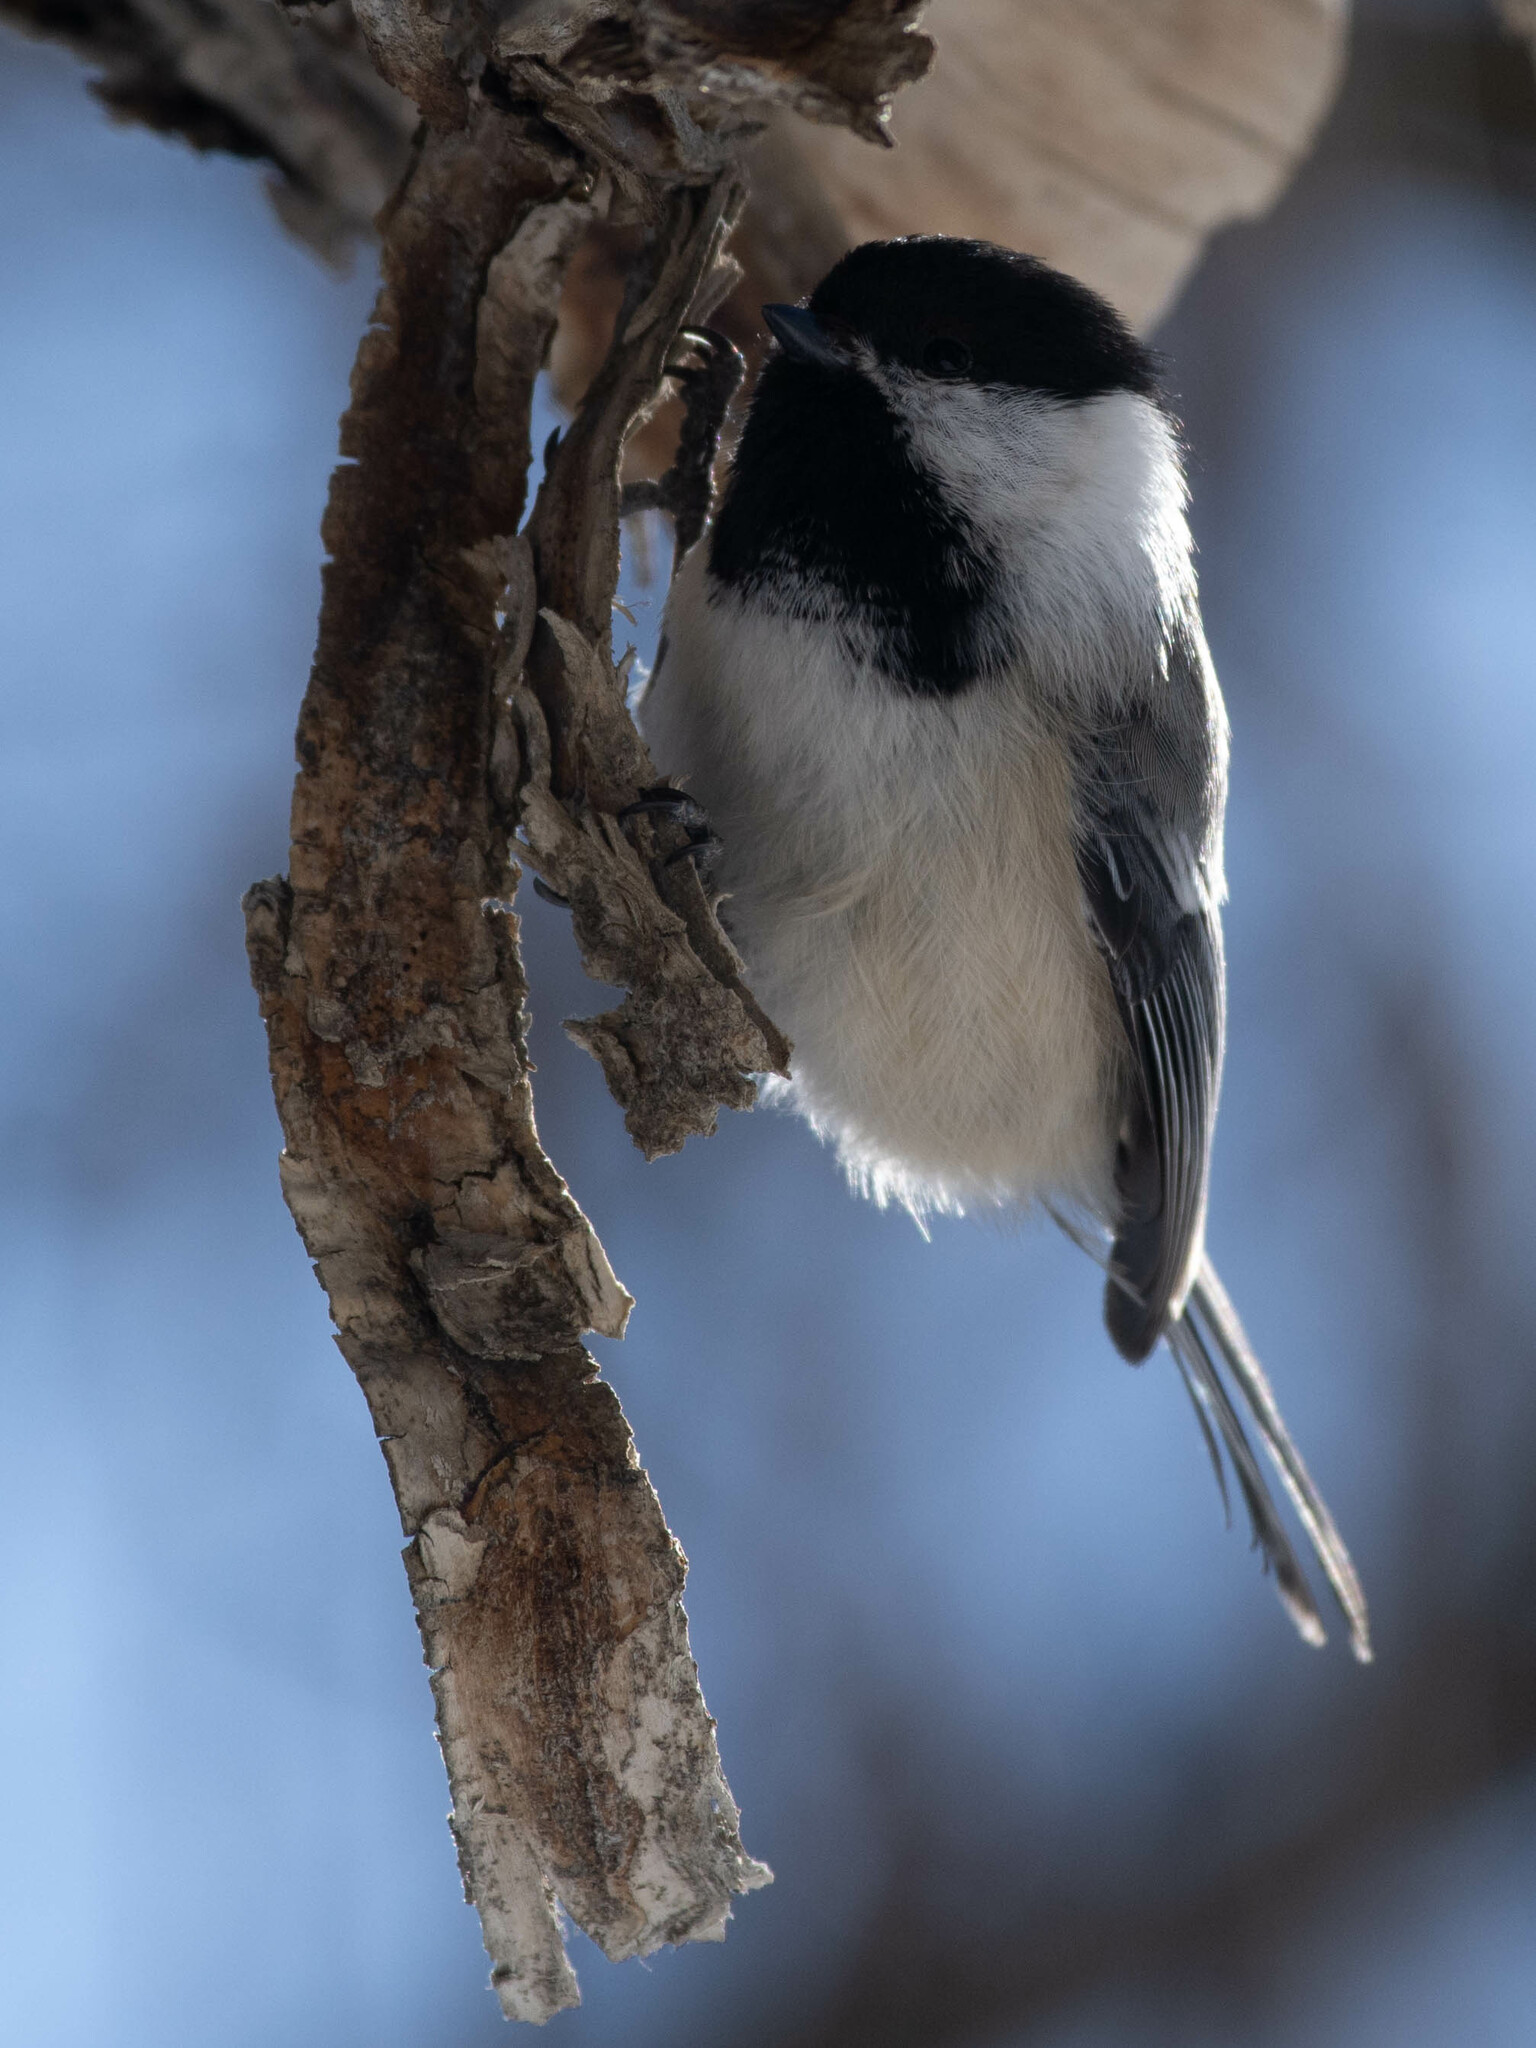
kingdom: Animalia
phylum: Chordata
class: Aves
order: Passeriformes
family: Paridae
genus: Poecile
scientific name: Poecile atricapillus
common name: Black-capped chickadee
